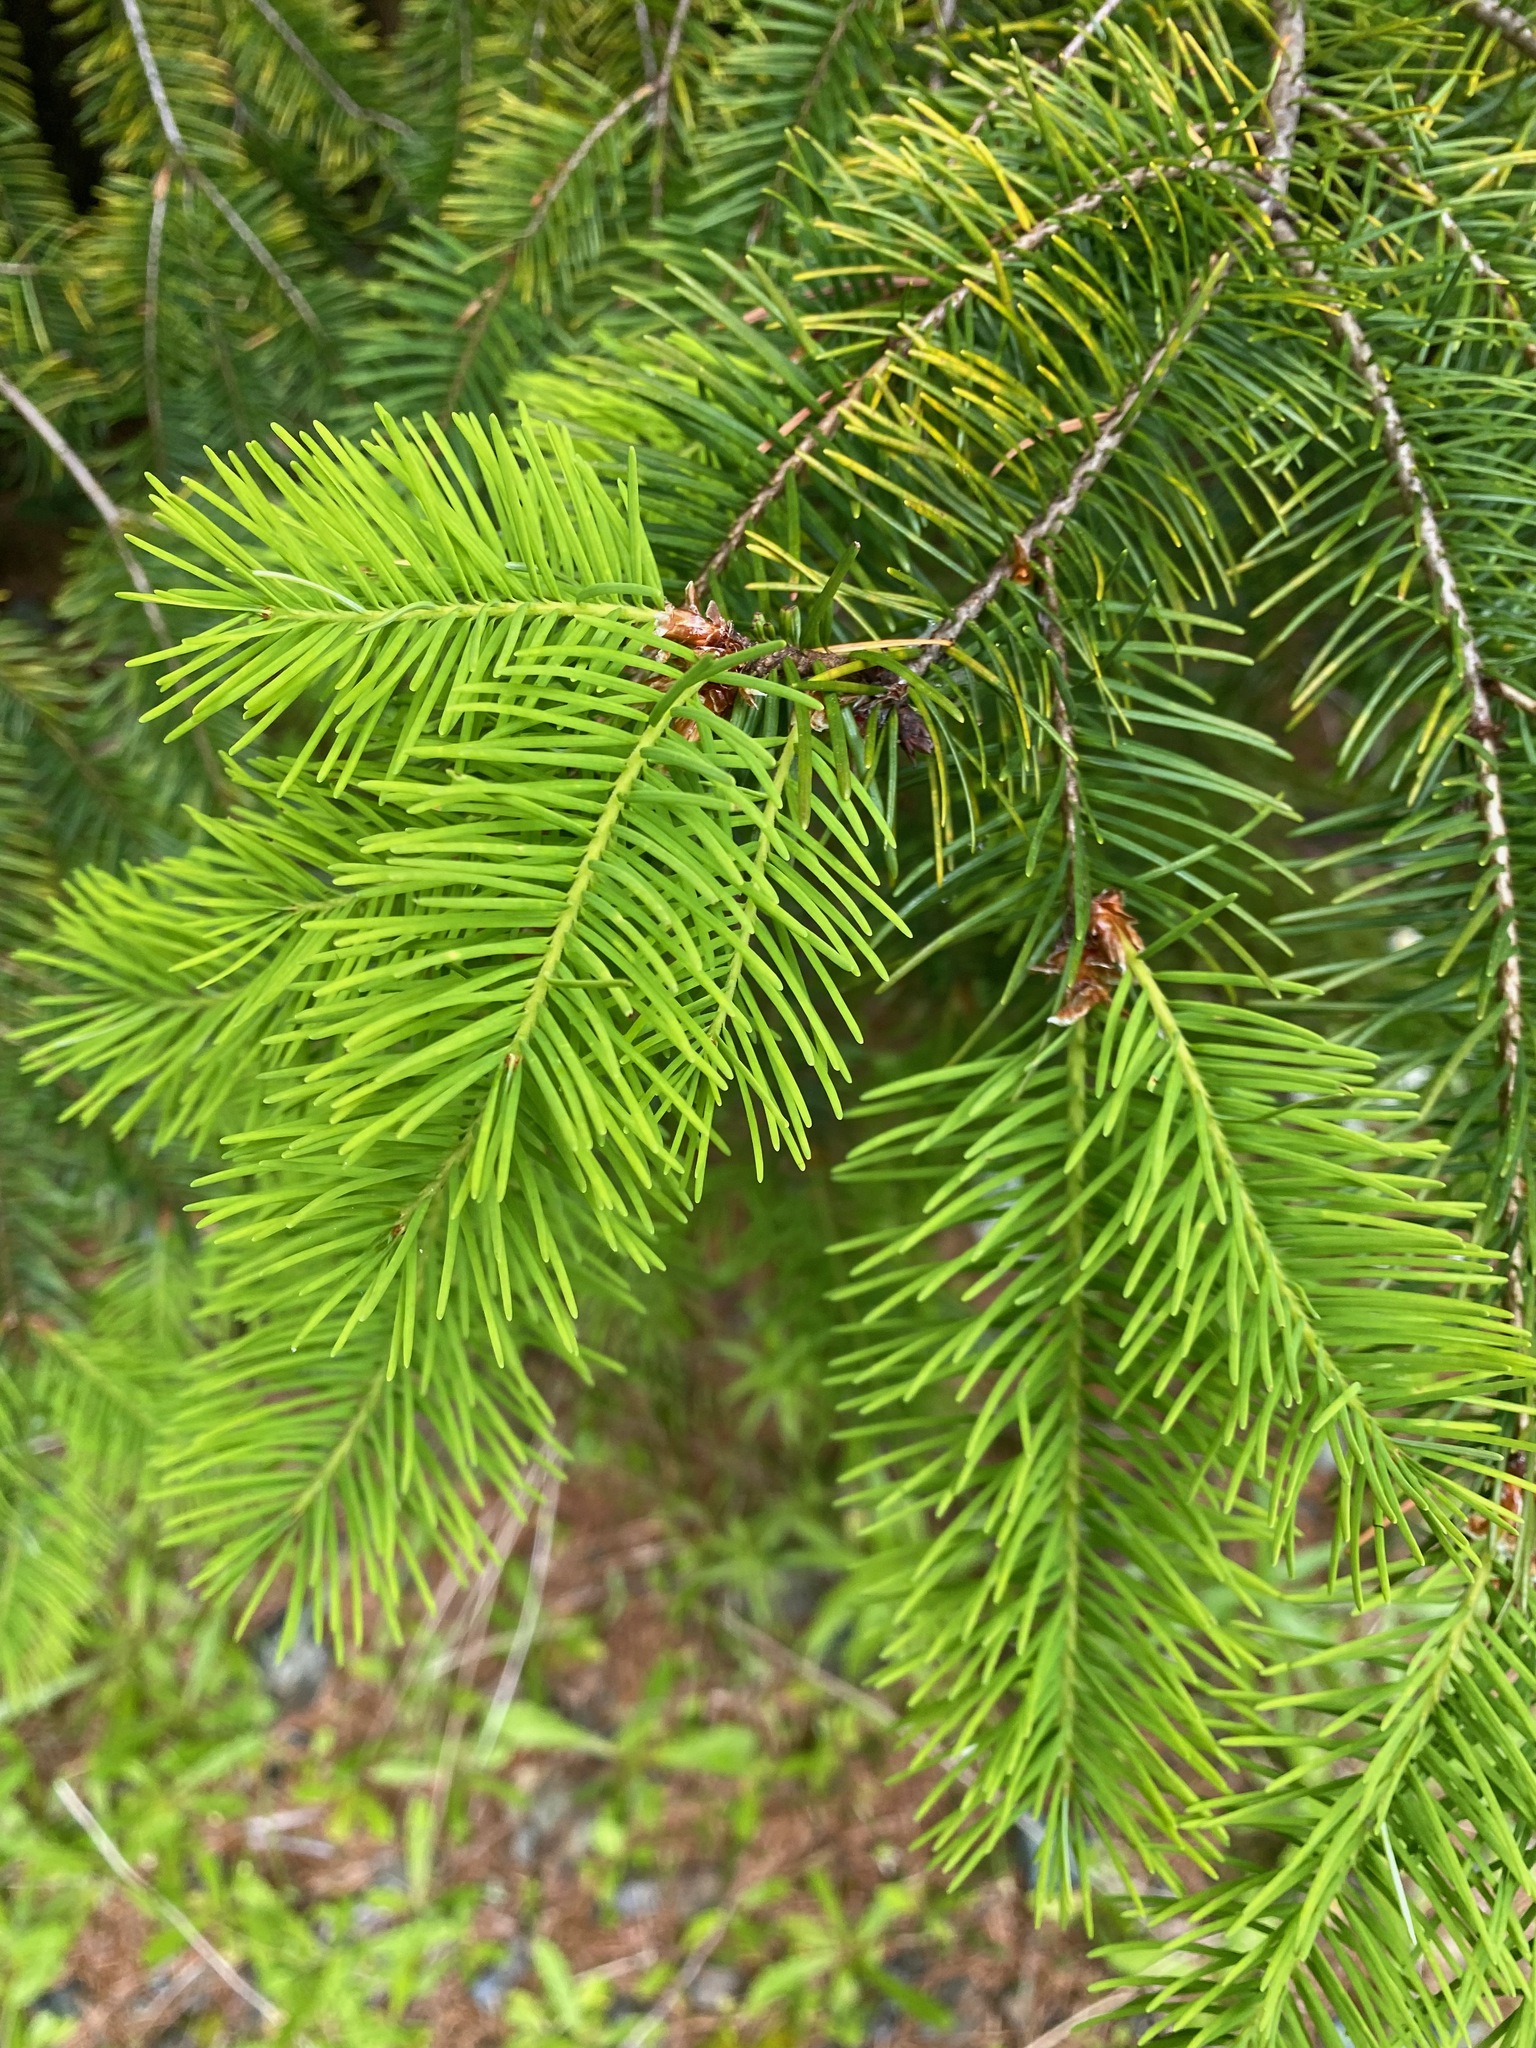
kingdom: Plantae
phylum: Tracheophyta
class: Pinopsida
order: Pinales
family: Pinaceae
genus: Pseudotsuga
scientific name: Pseudotsuga menziesii
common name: Douglas fir
